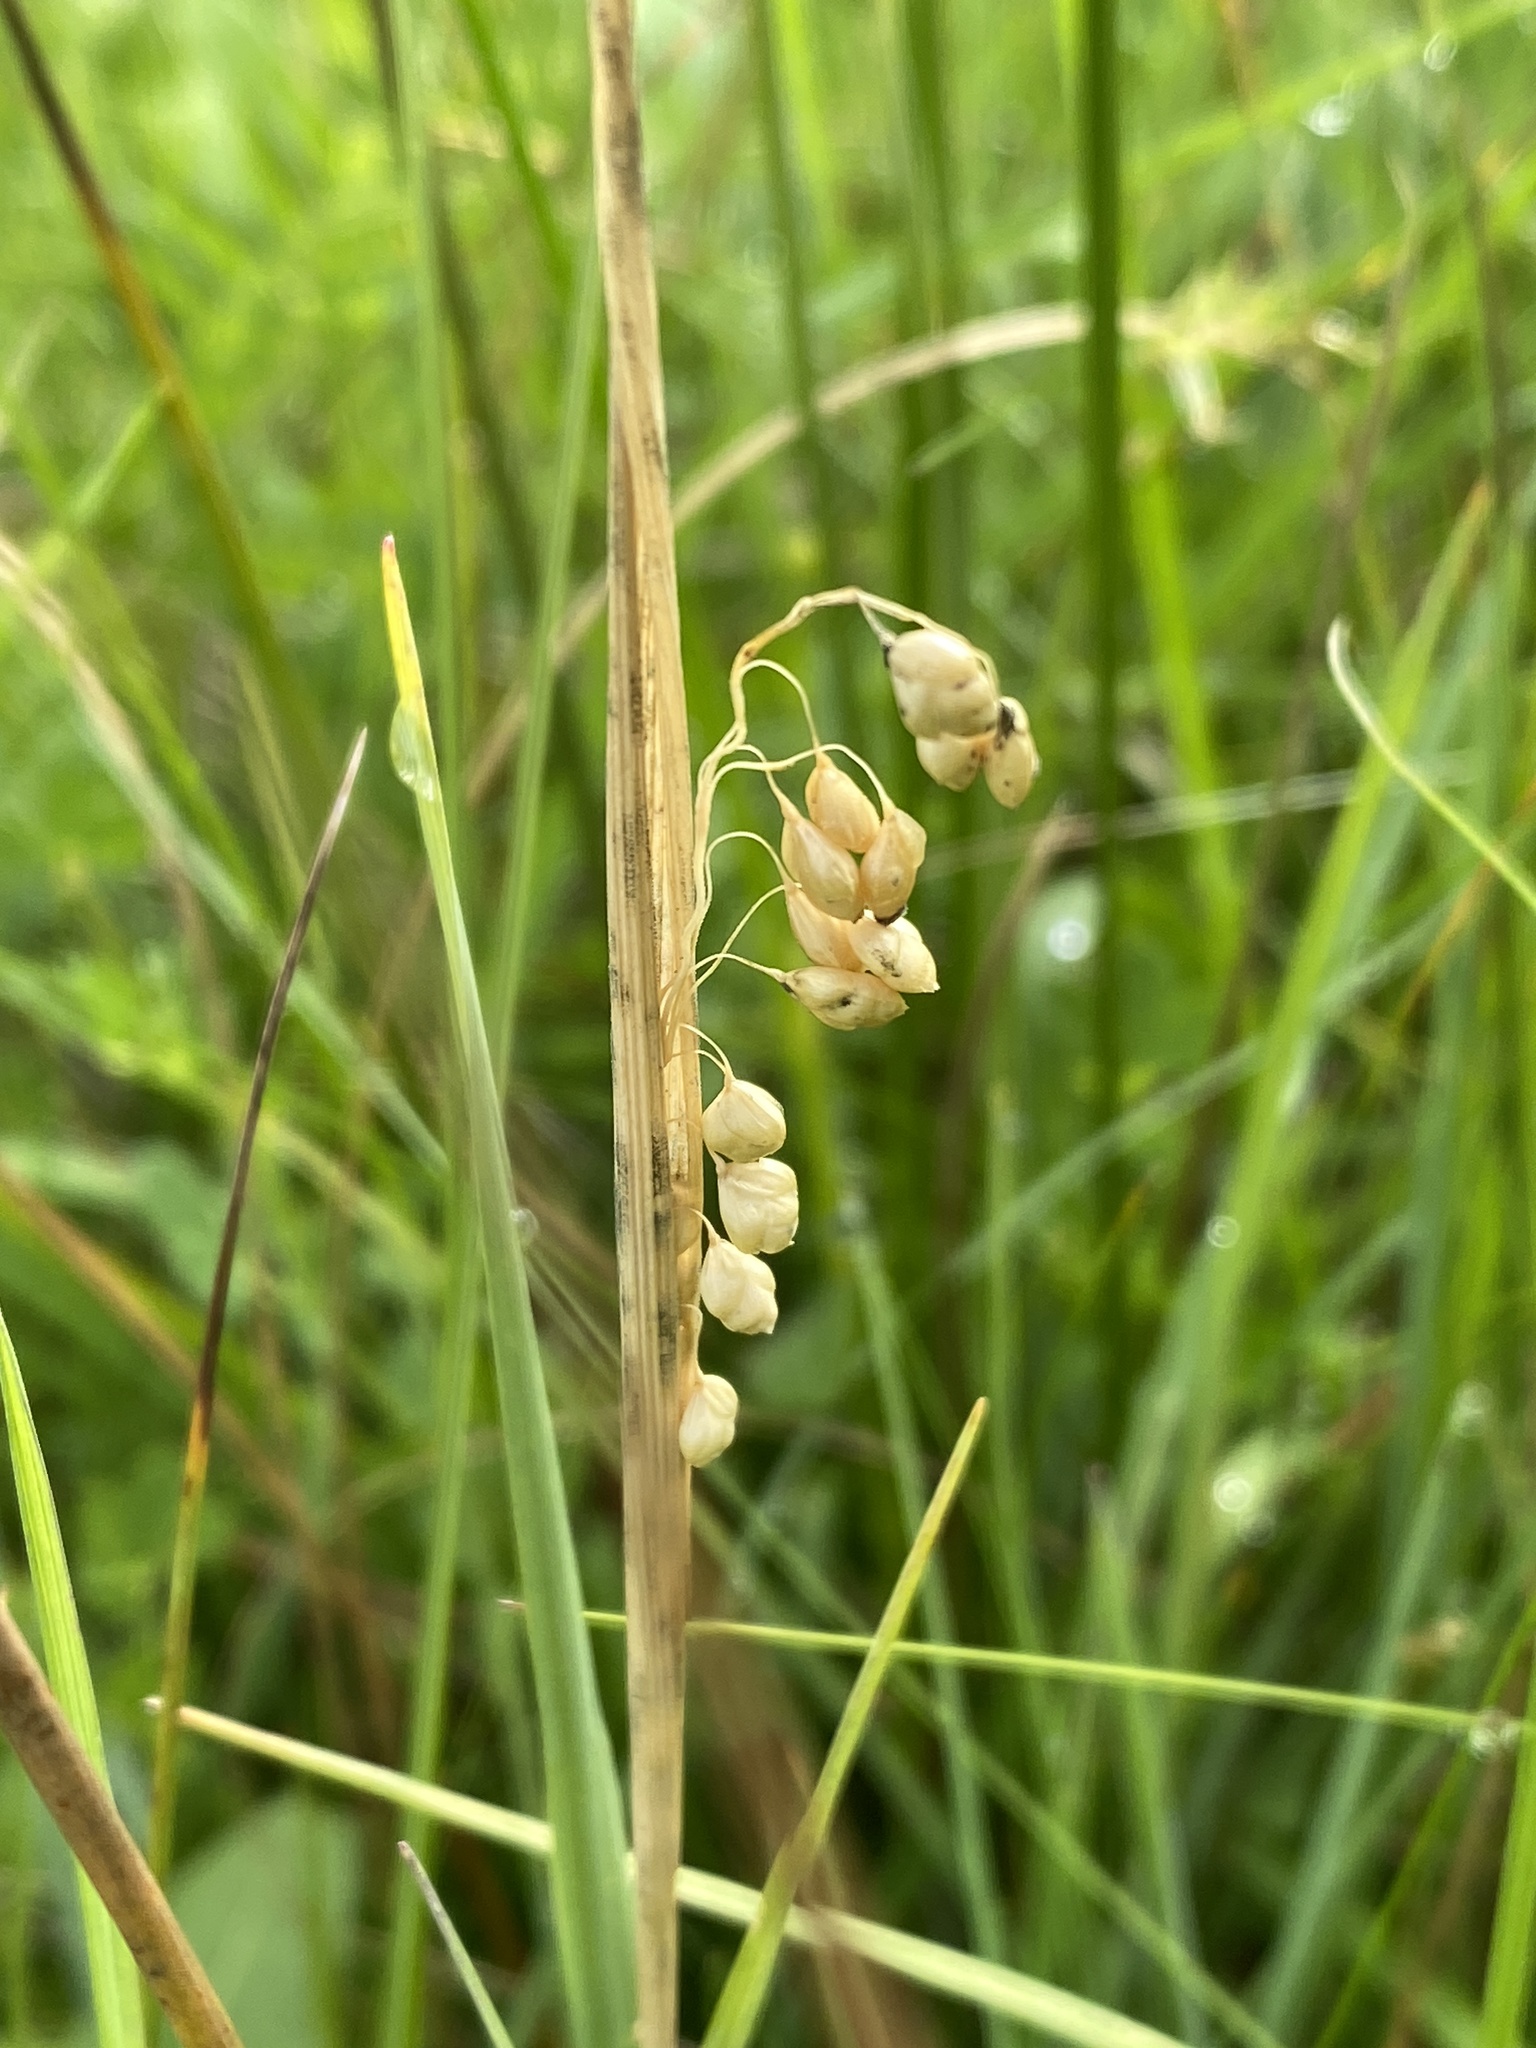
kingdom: Plantae
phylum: Tracheophyta
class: Liliopsida
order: Poales
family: Poaceae
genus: Briza
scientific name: Briza media
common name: Quaking grass
